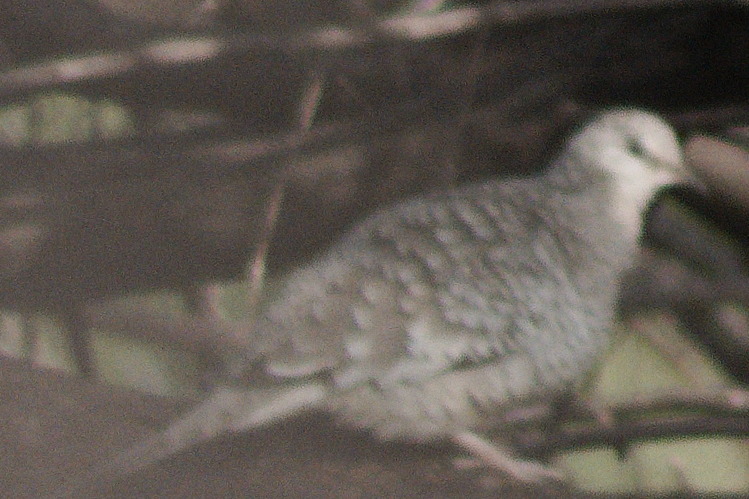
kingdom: Animalia
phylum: Chordata
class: Aves
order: Columbiformes
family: Columbidae
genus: Columbina
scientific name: Columbina squammata
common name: Scaled dove
